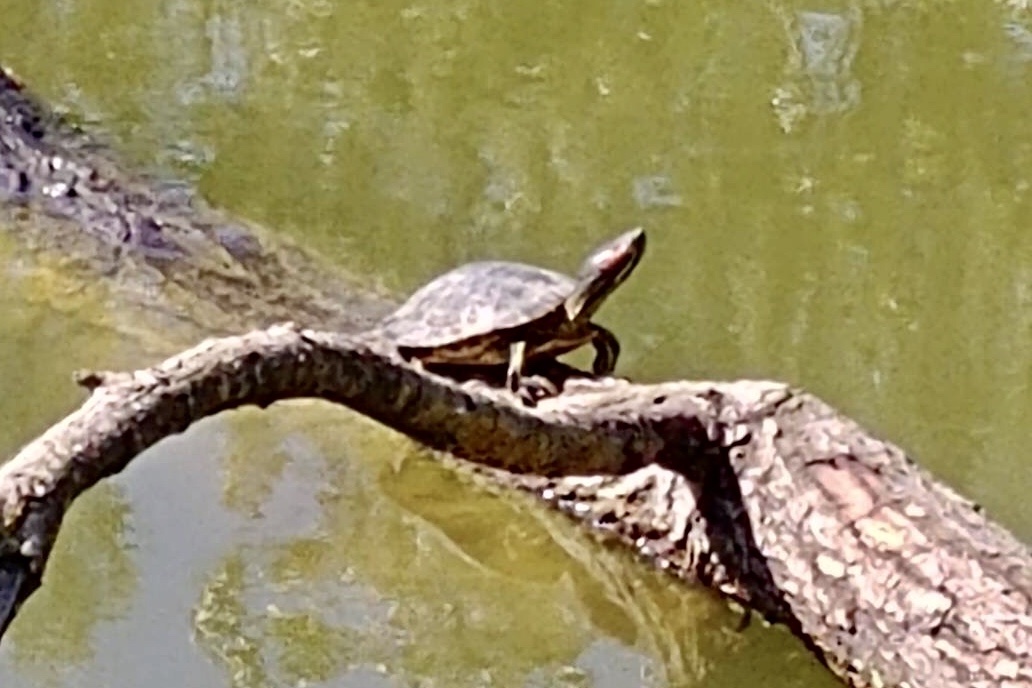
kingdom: Animalia
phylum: Chordata
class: Testudines
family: Emydidae
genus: Trachemys
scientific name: Trachemys scripta
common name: Slider
